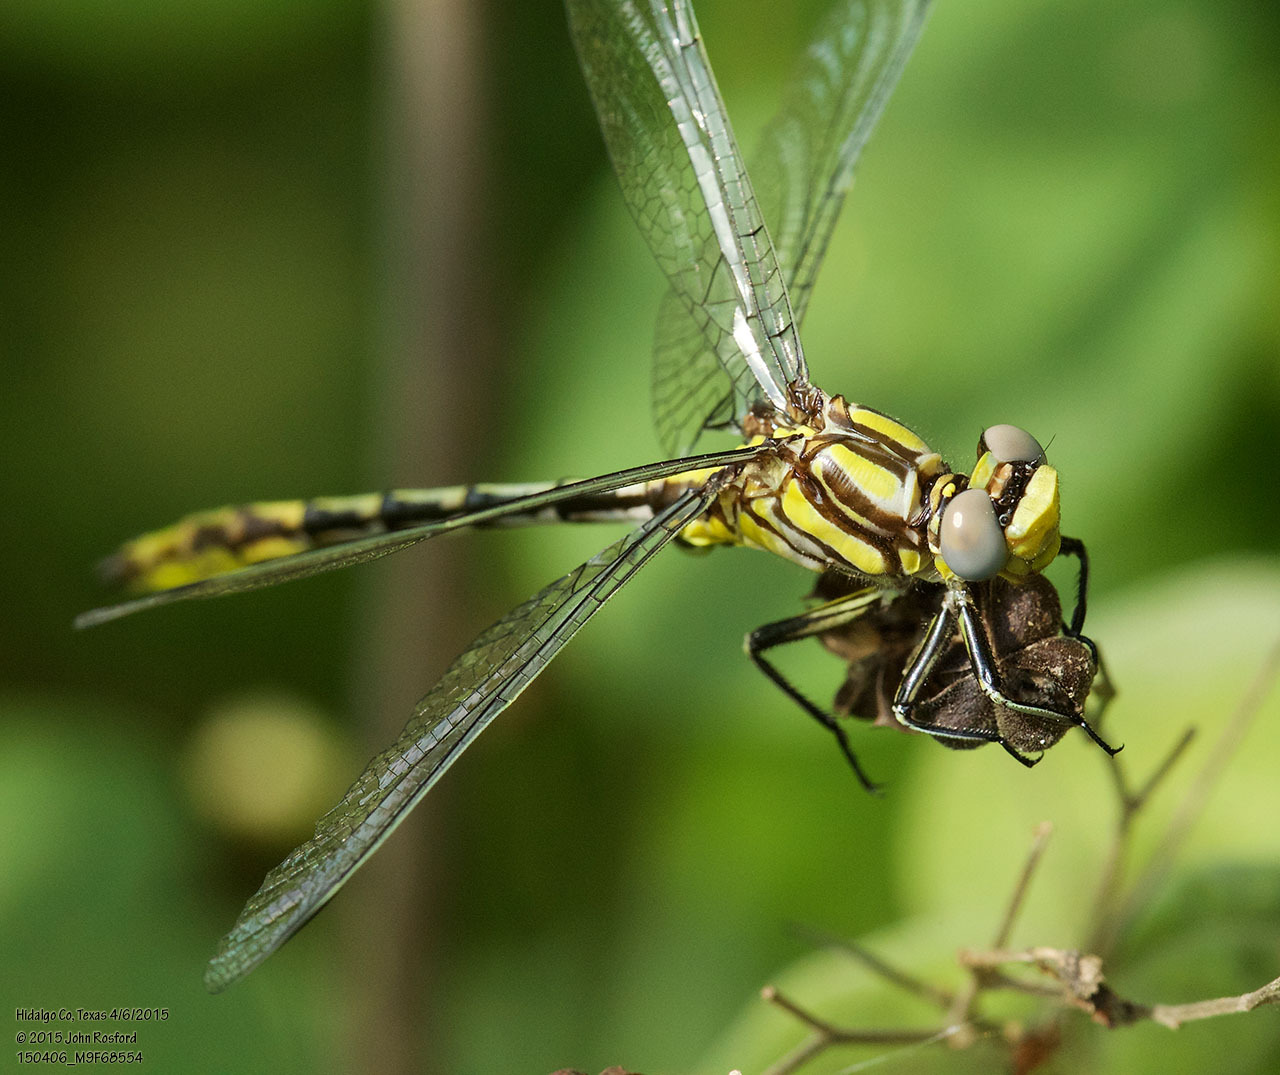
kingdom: Animalia
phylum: Arthropoda
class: Insecta
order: Odonata
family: Gomphidae
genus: Phanogomphus
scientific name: Phanogomphus militaris
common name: Sulphur-tipped clubtail
